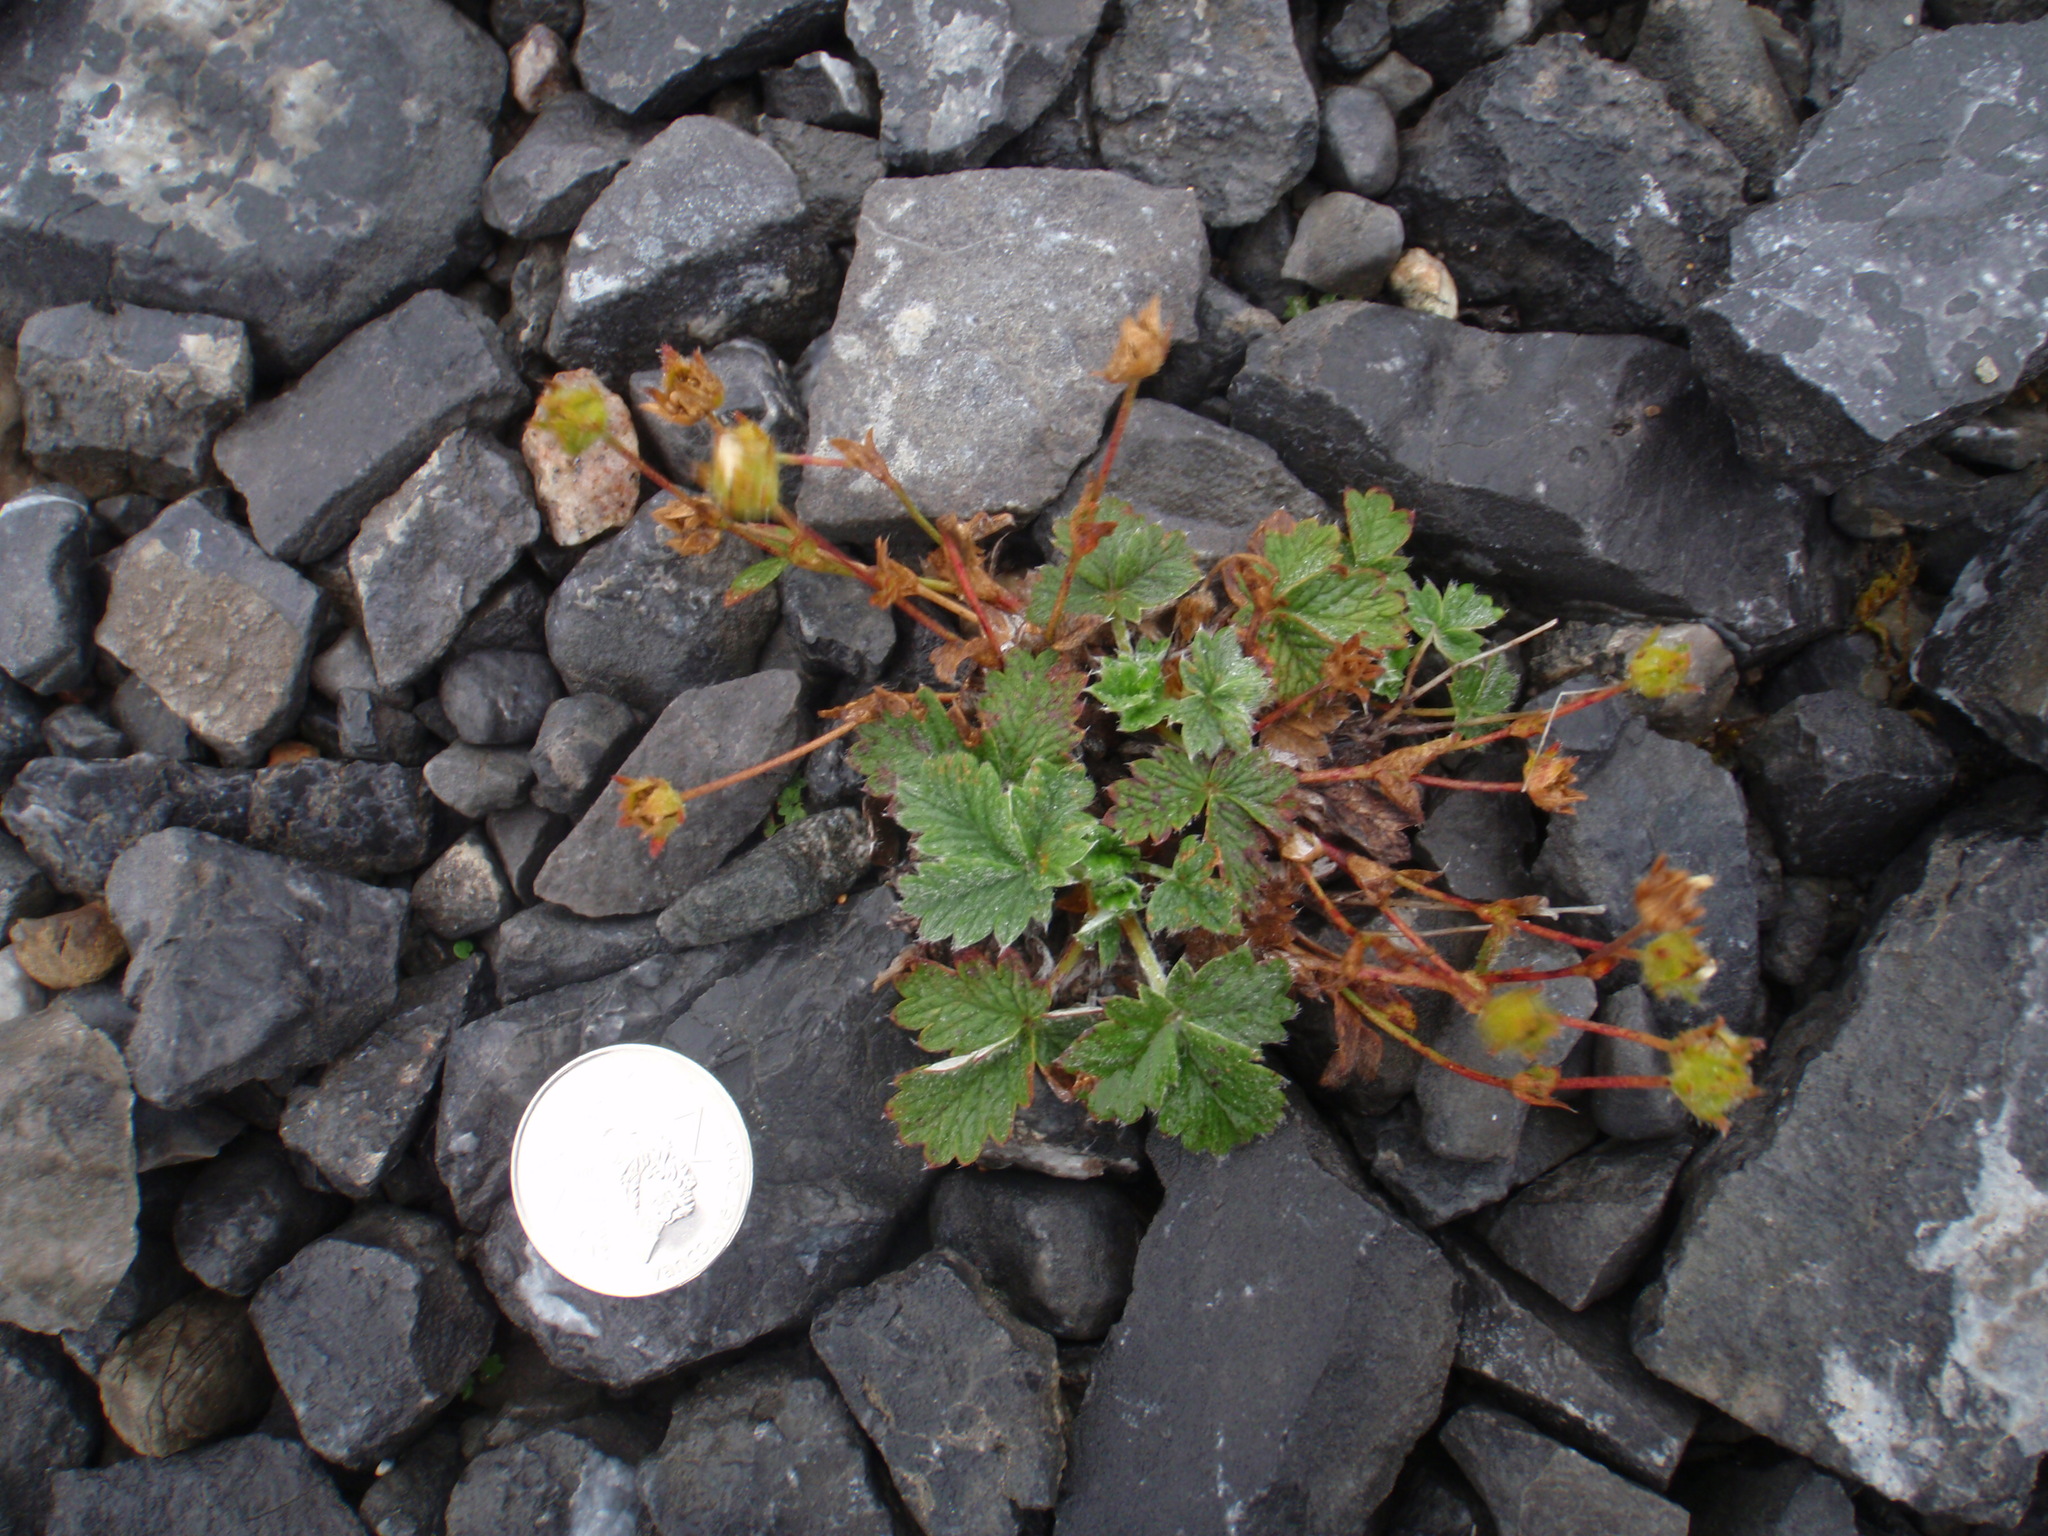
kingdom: Plantae
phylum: Tracheophyta
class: Magnoliopsida
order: Rosales
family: Rosaceae
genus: Potentilla
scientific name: Potentilla nivea
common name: Snow cinquefoil
